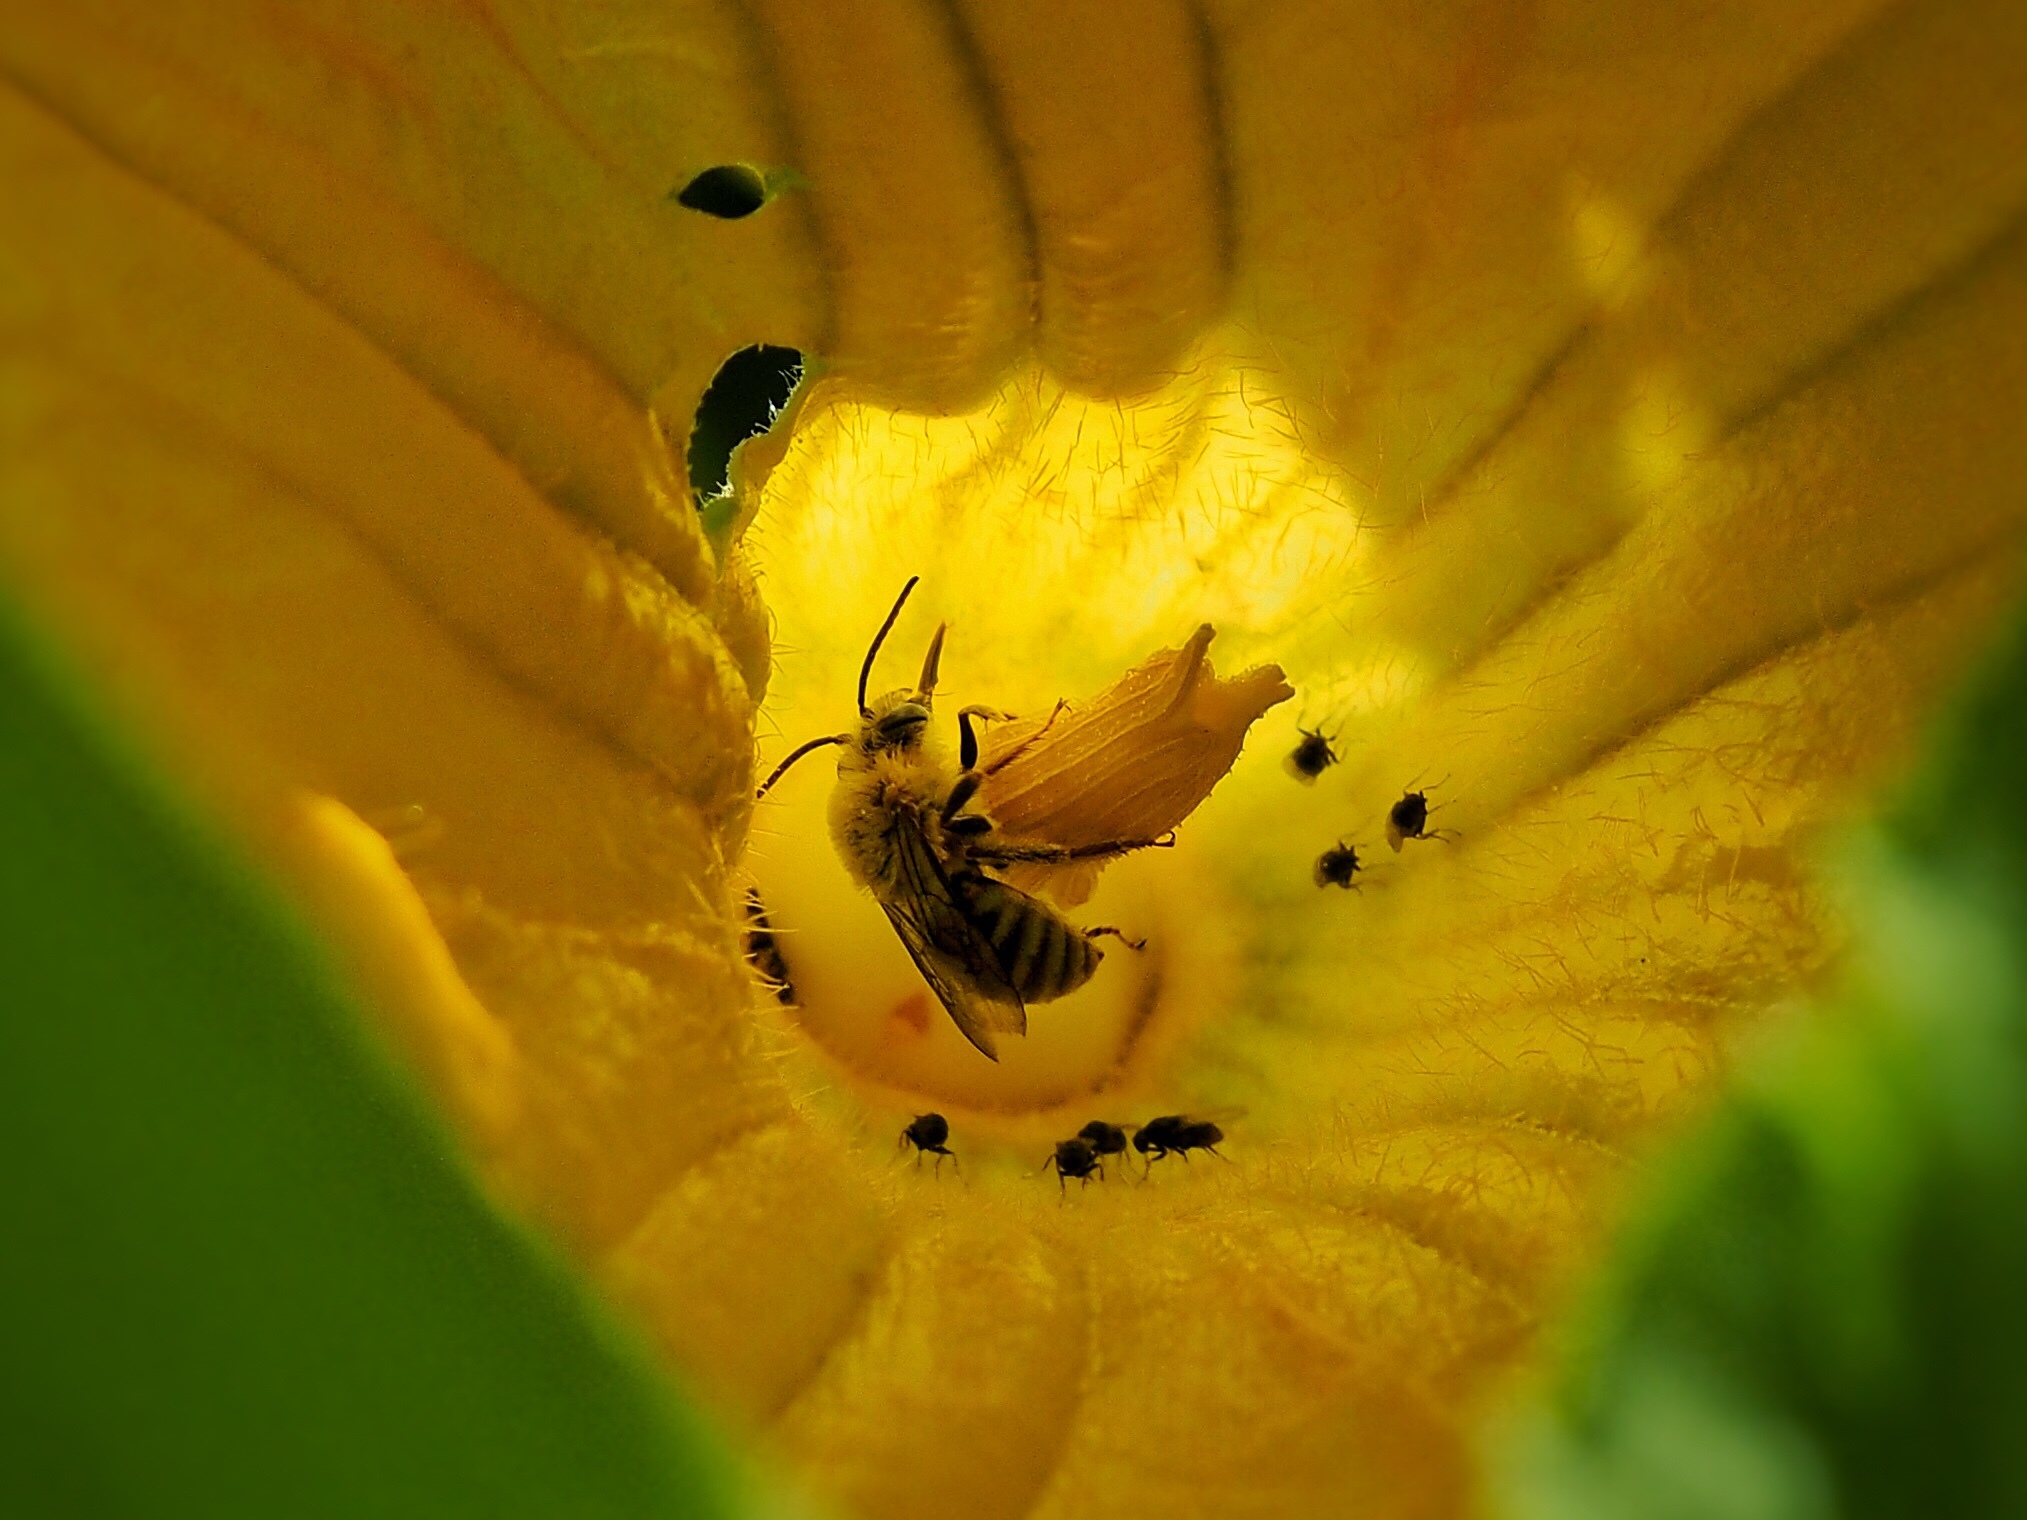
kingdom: Animalia
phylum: Arthropoda
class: Insecta
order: Hymenoptera
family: Apidae
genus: Peponapis
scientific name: Peponapis pruinosa
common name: Pruinose squash bee
